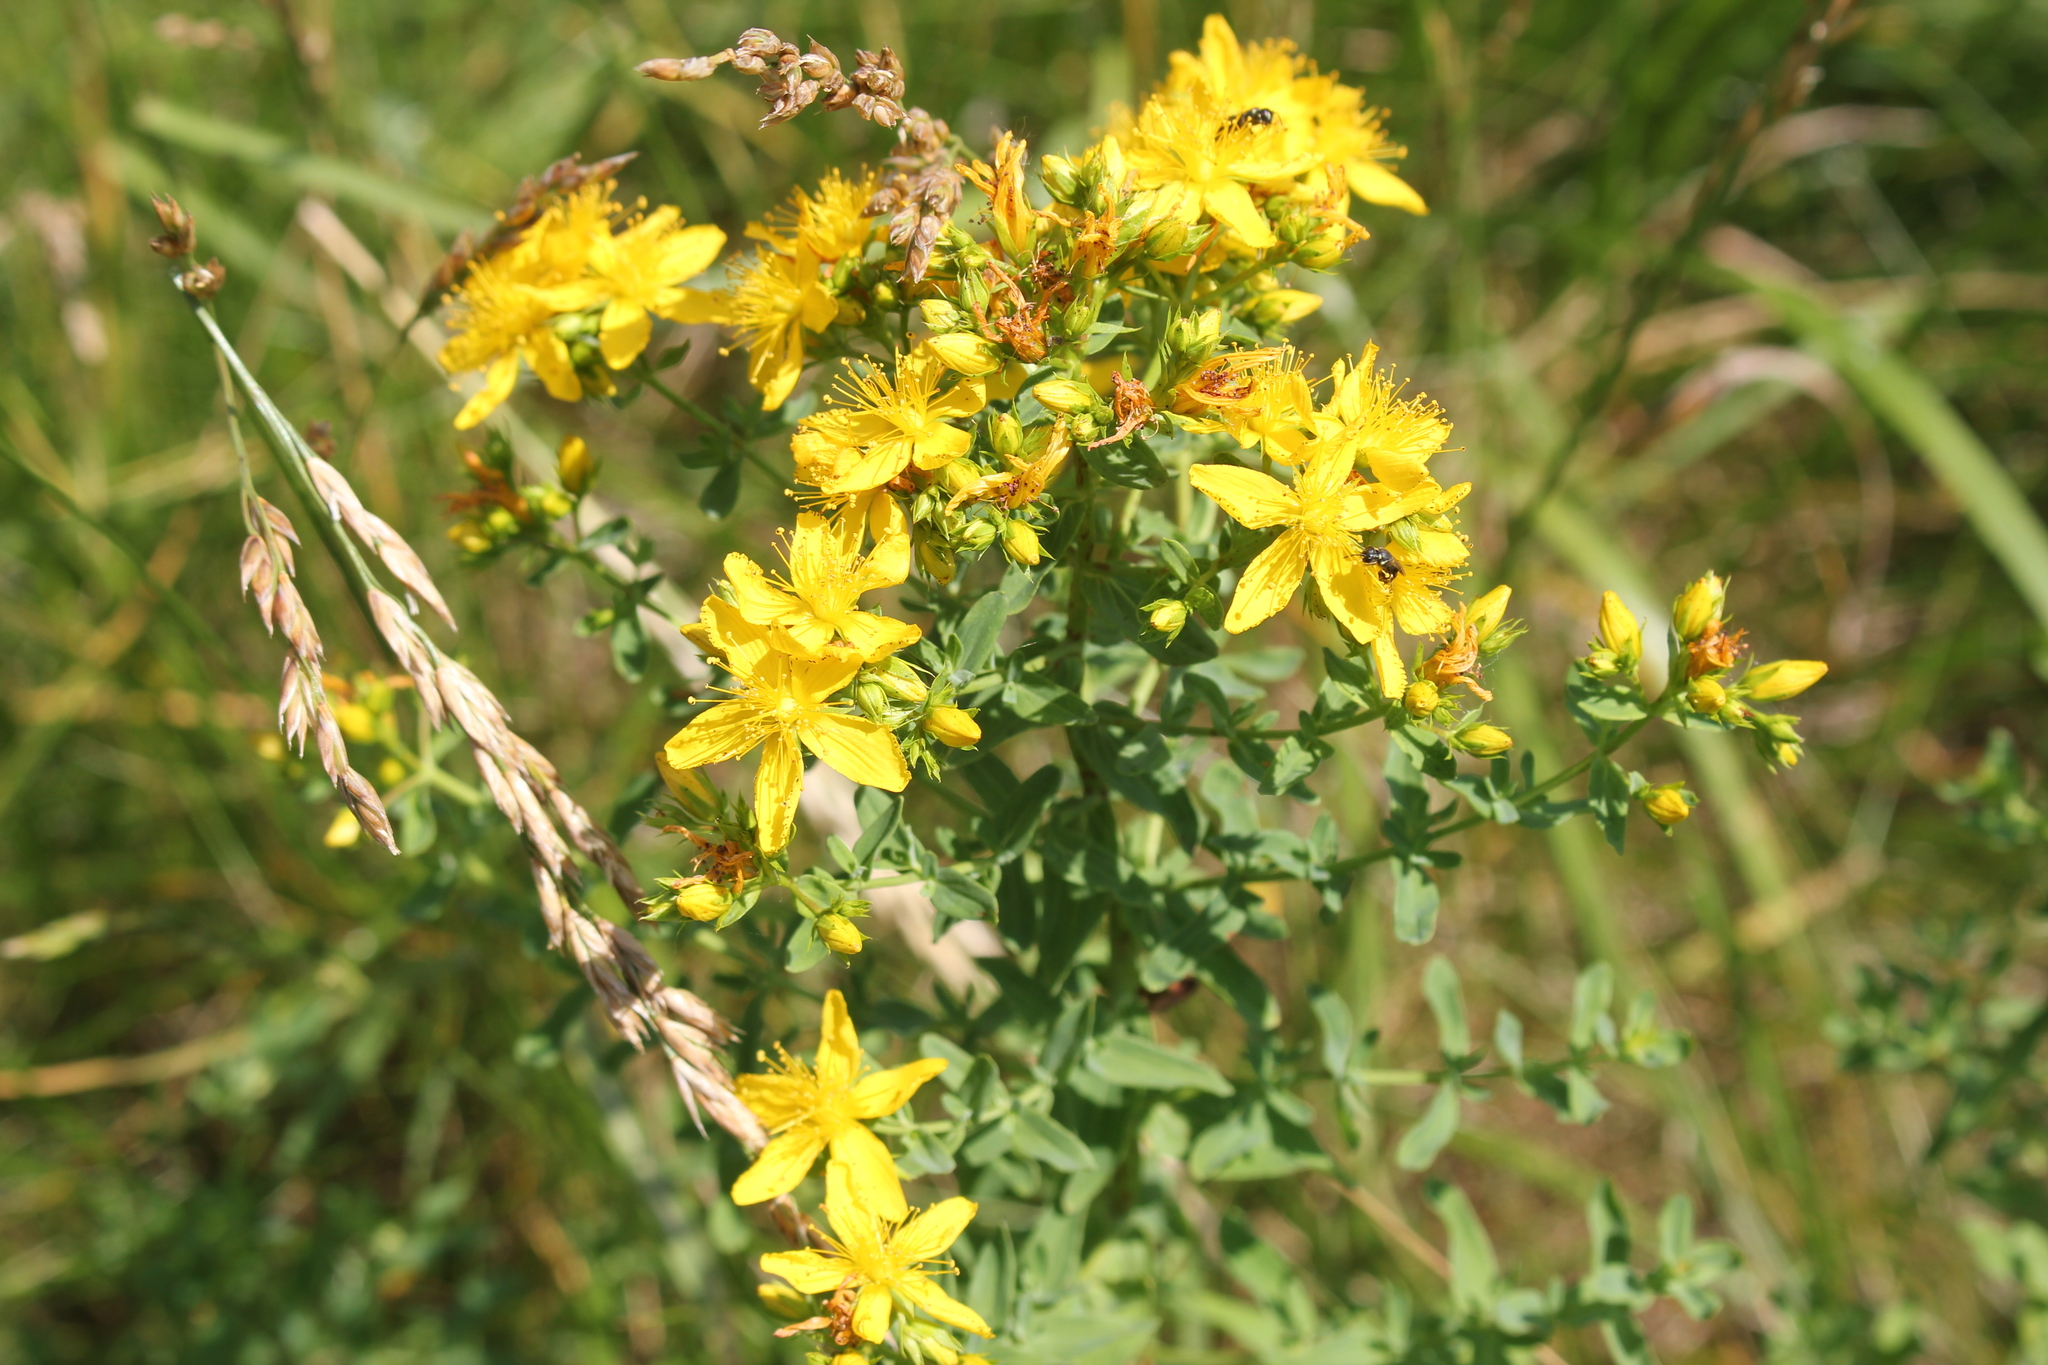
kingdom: Plantae
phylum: Tracheophyta
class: Magnoliopsida
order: Malpighiales
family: Hypericaceae
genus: Hypericum
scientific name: Hypericum perforatum
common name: Common st. johnswort
